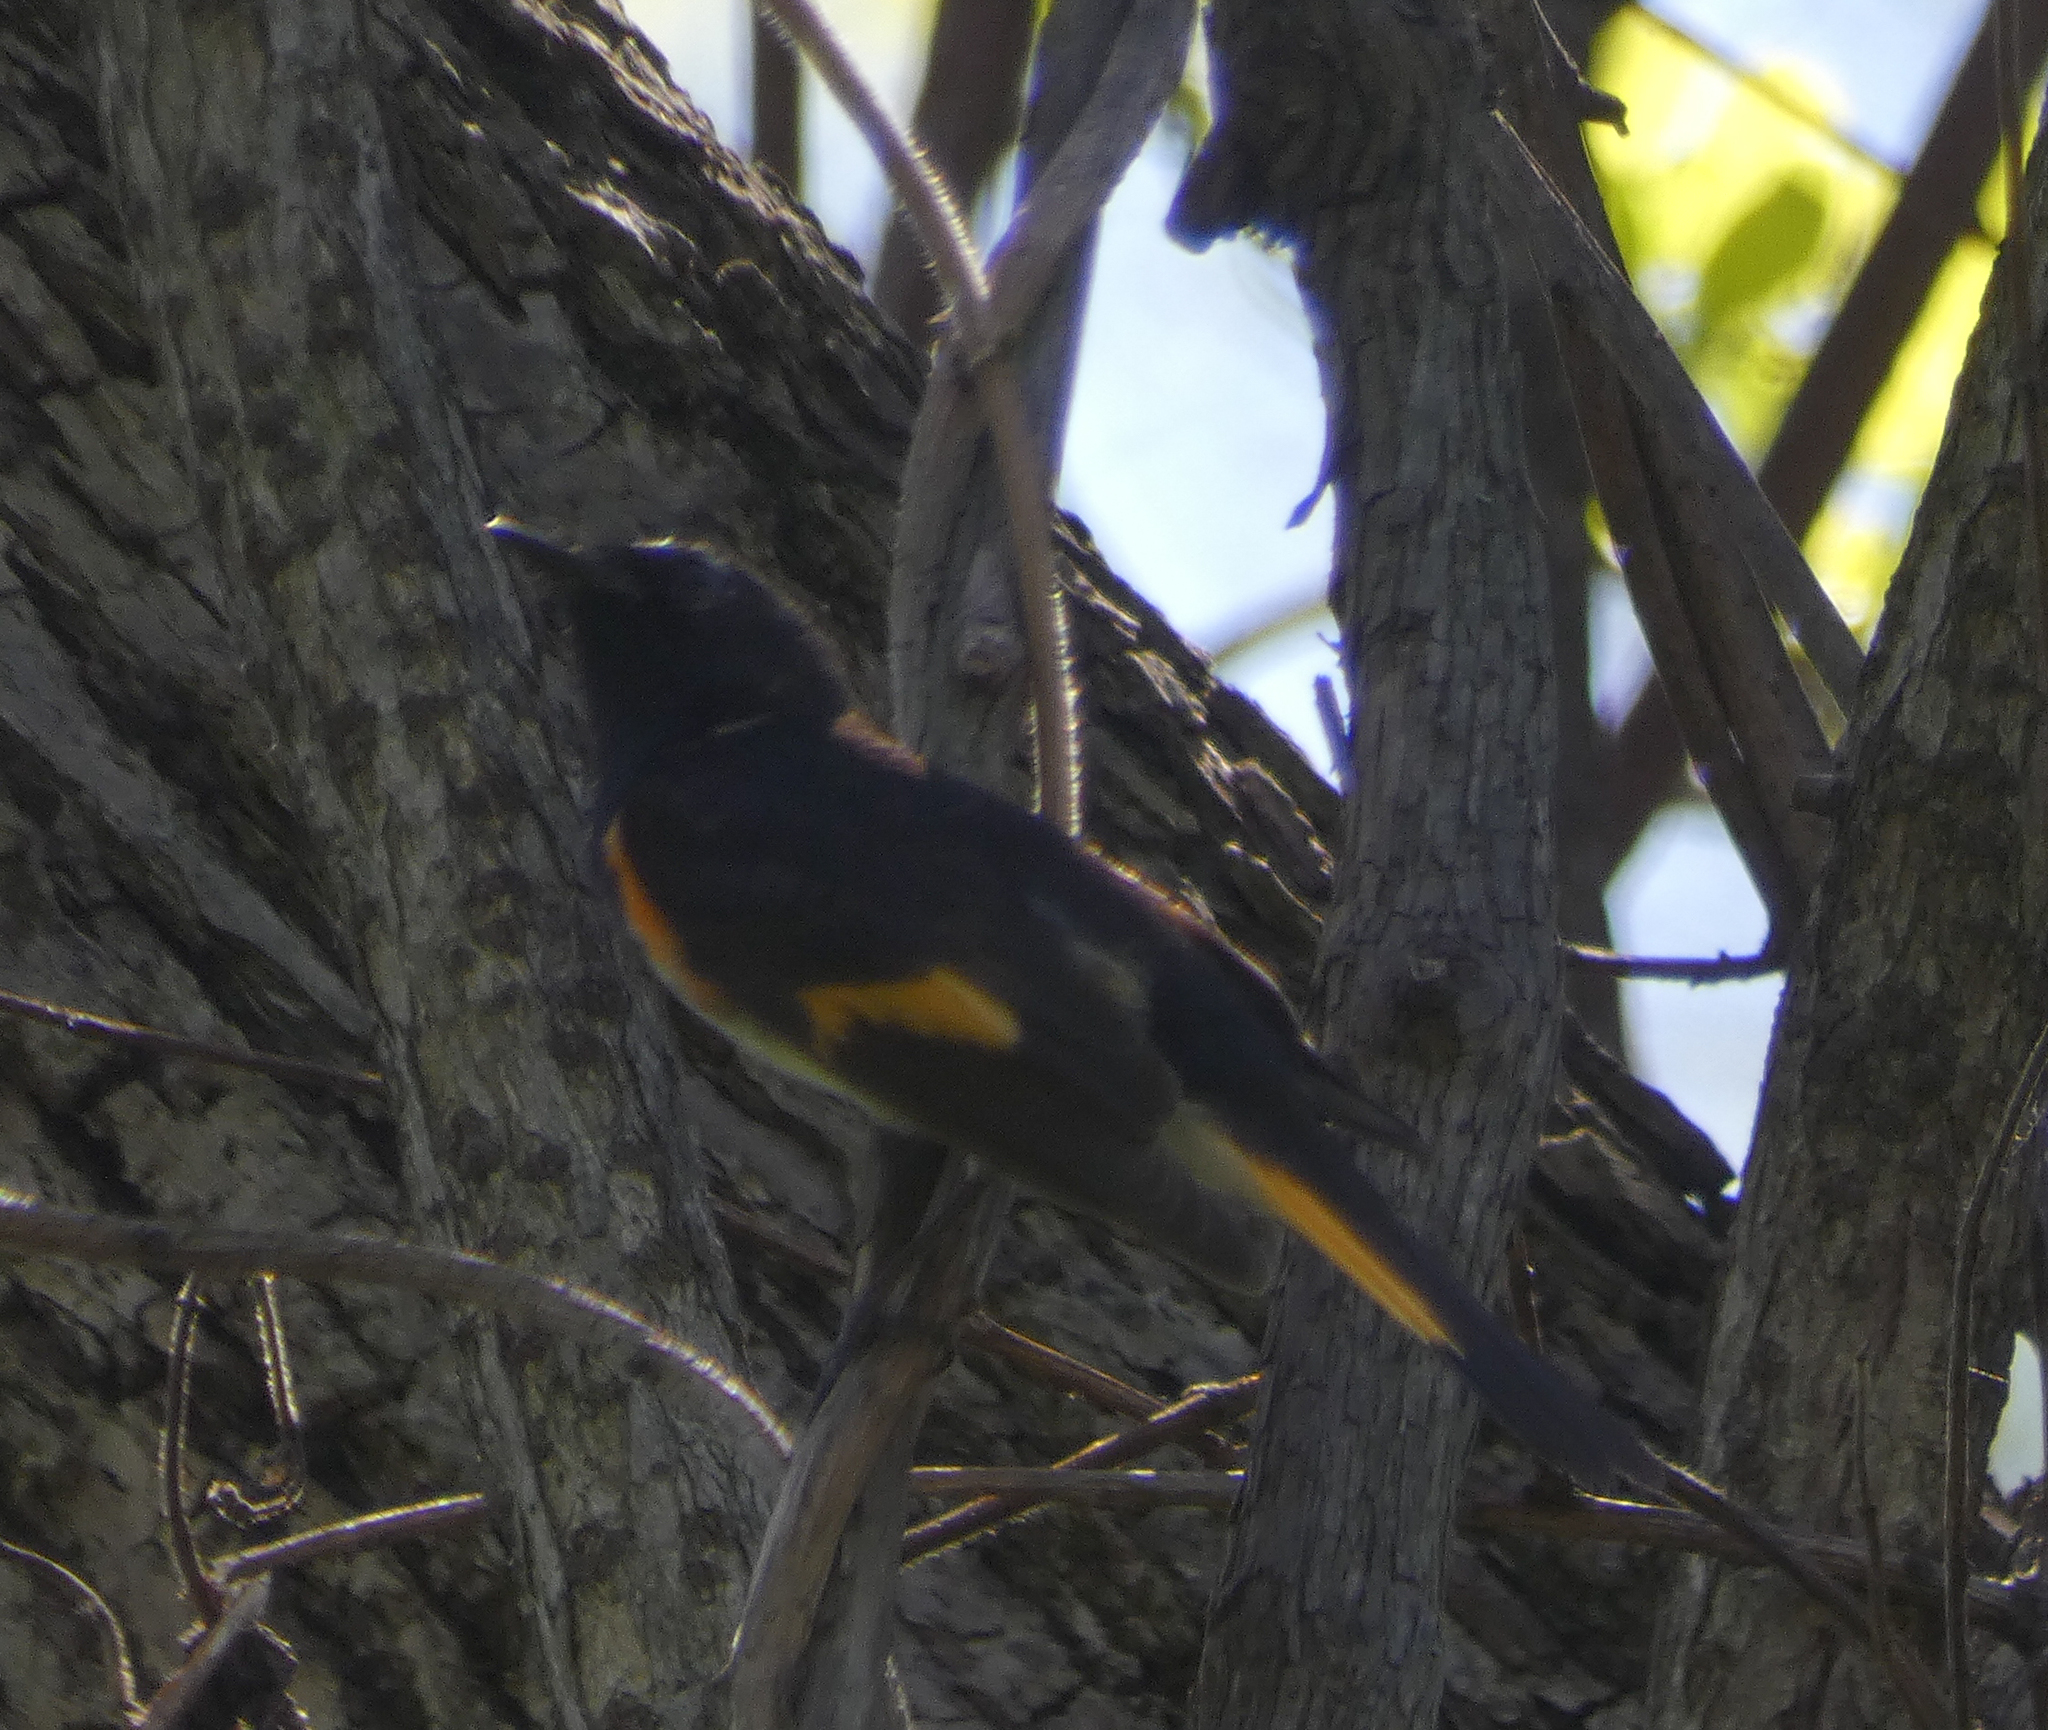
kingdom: Animalia
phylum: Chordata
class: Aves
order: Passeriformes
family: Parulidae
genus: Setophaga
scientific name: Setophaga ruticilla
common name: American redstart
